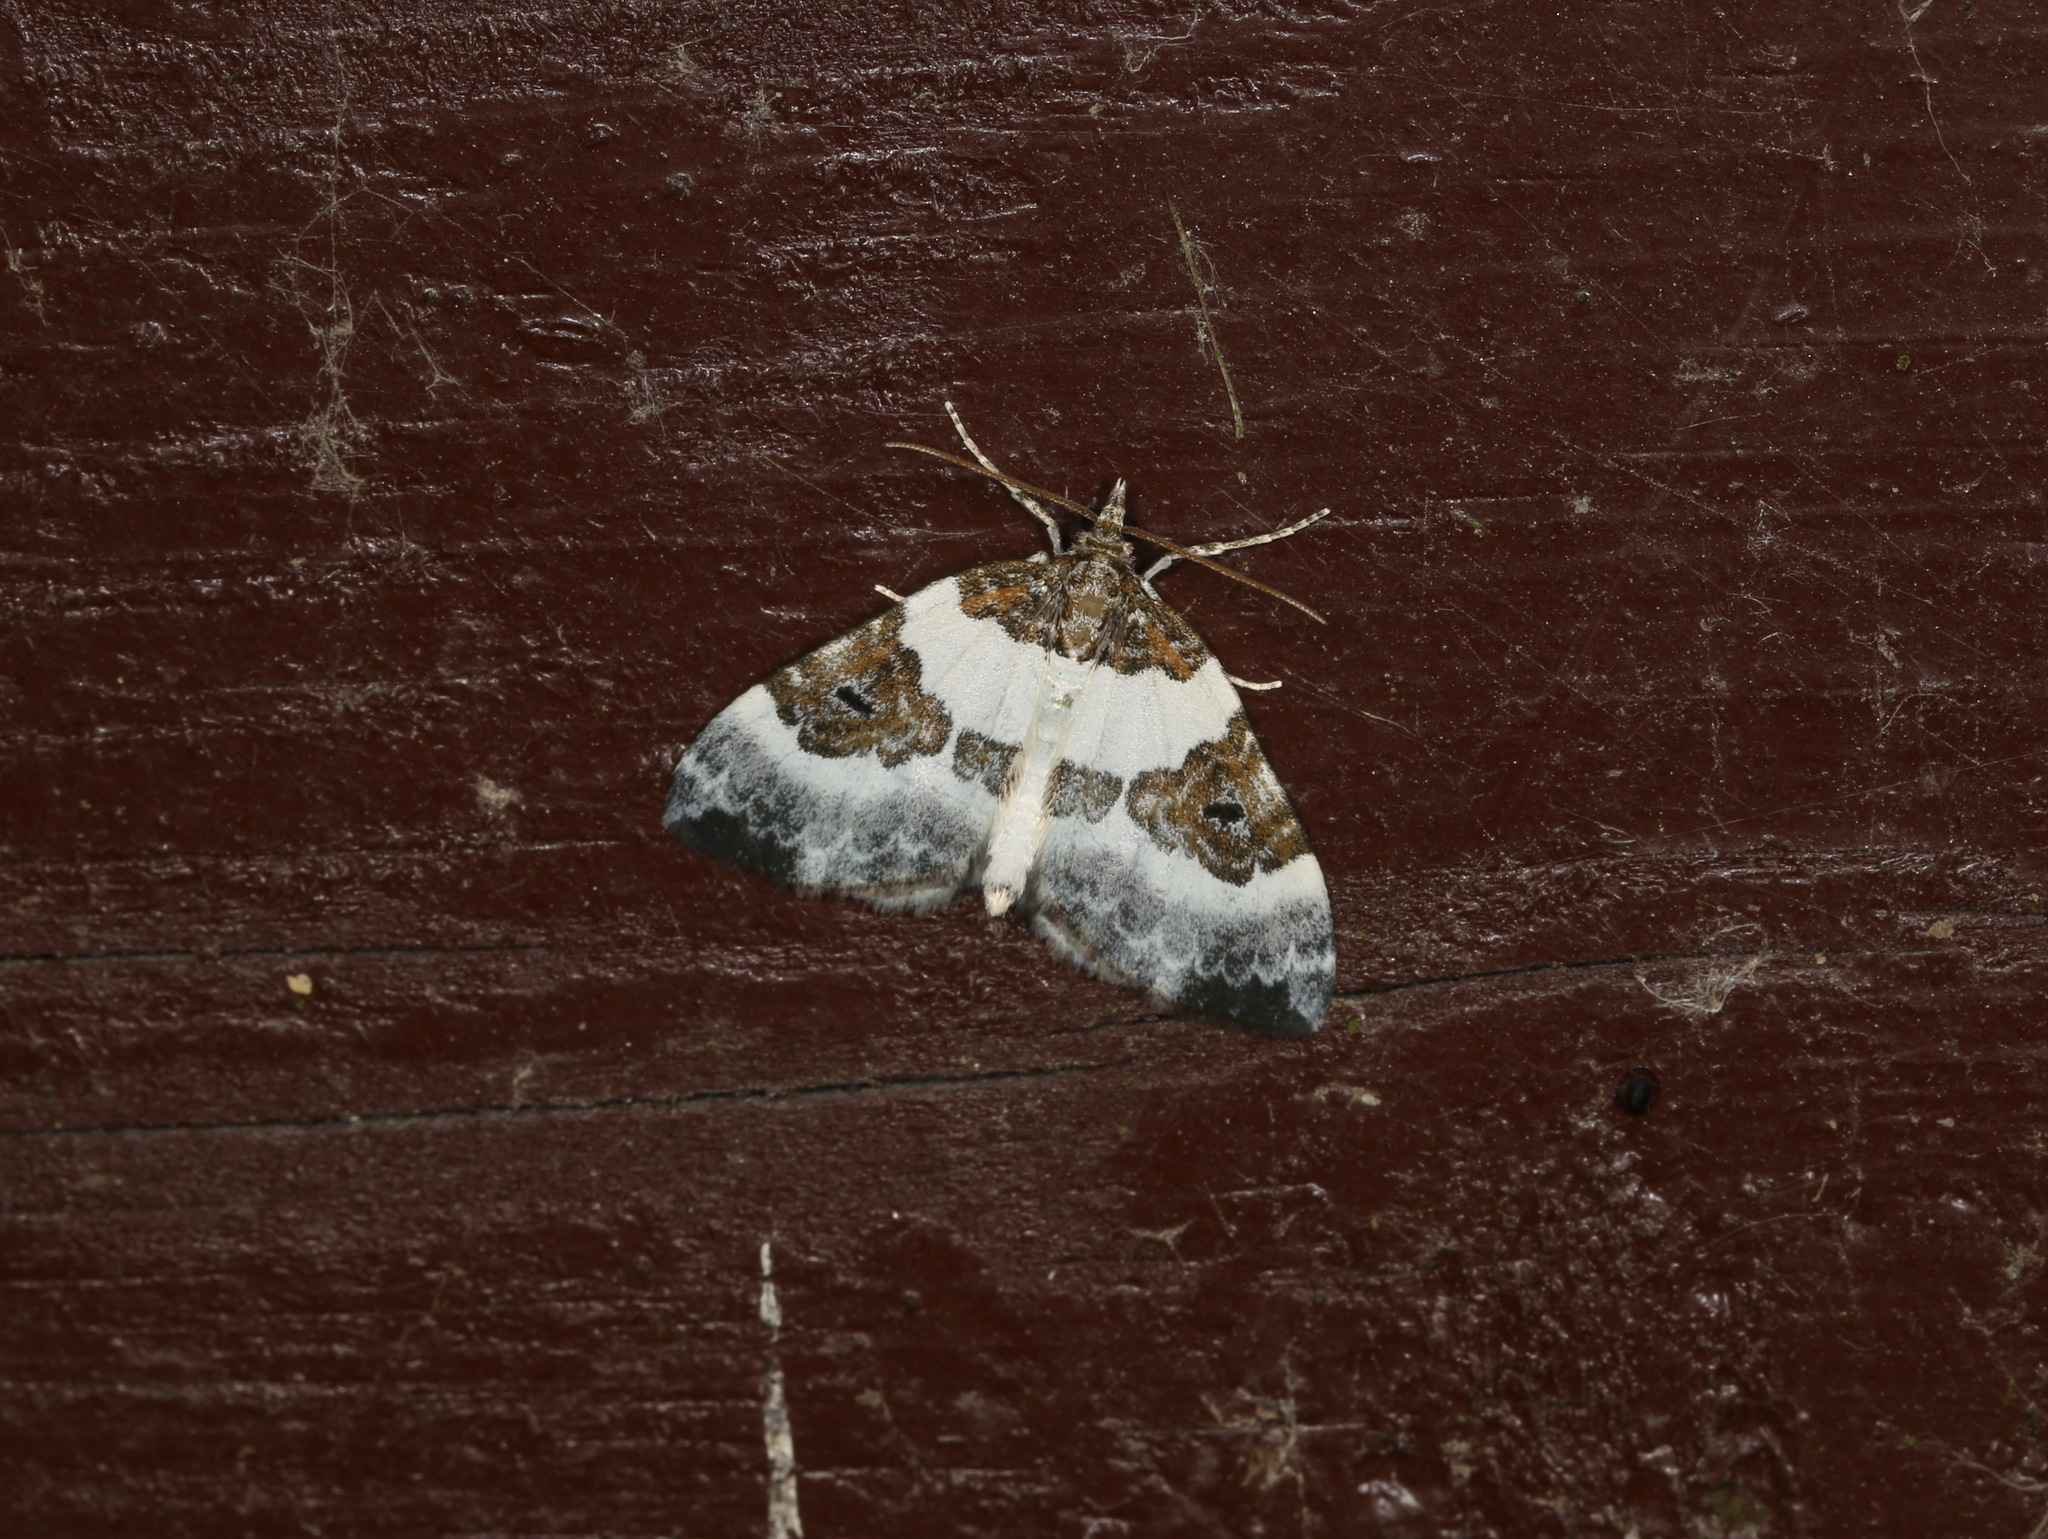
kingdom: Animalia
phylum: Arthropoda
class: Insecta
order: Lepidoptera
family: Geometridae
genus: Plemyria
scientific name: Plemyria rubiginata
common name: Blue-bordered carpet
